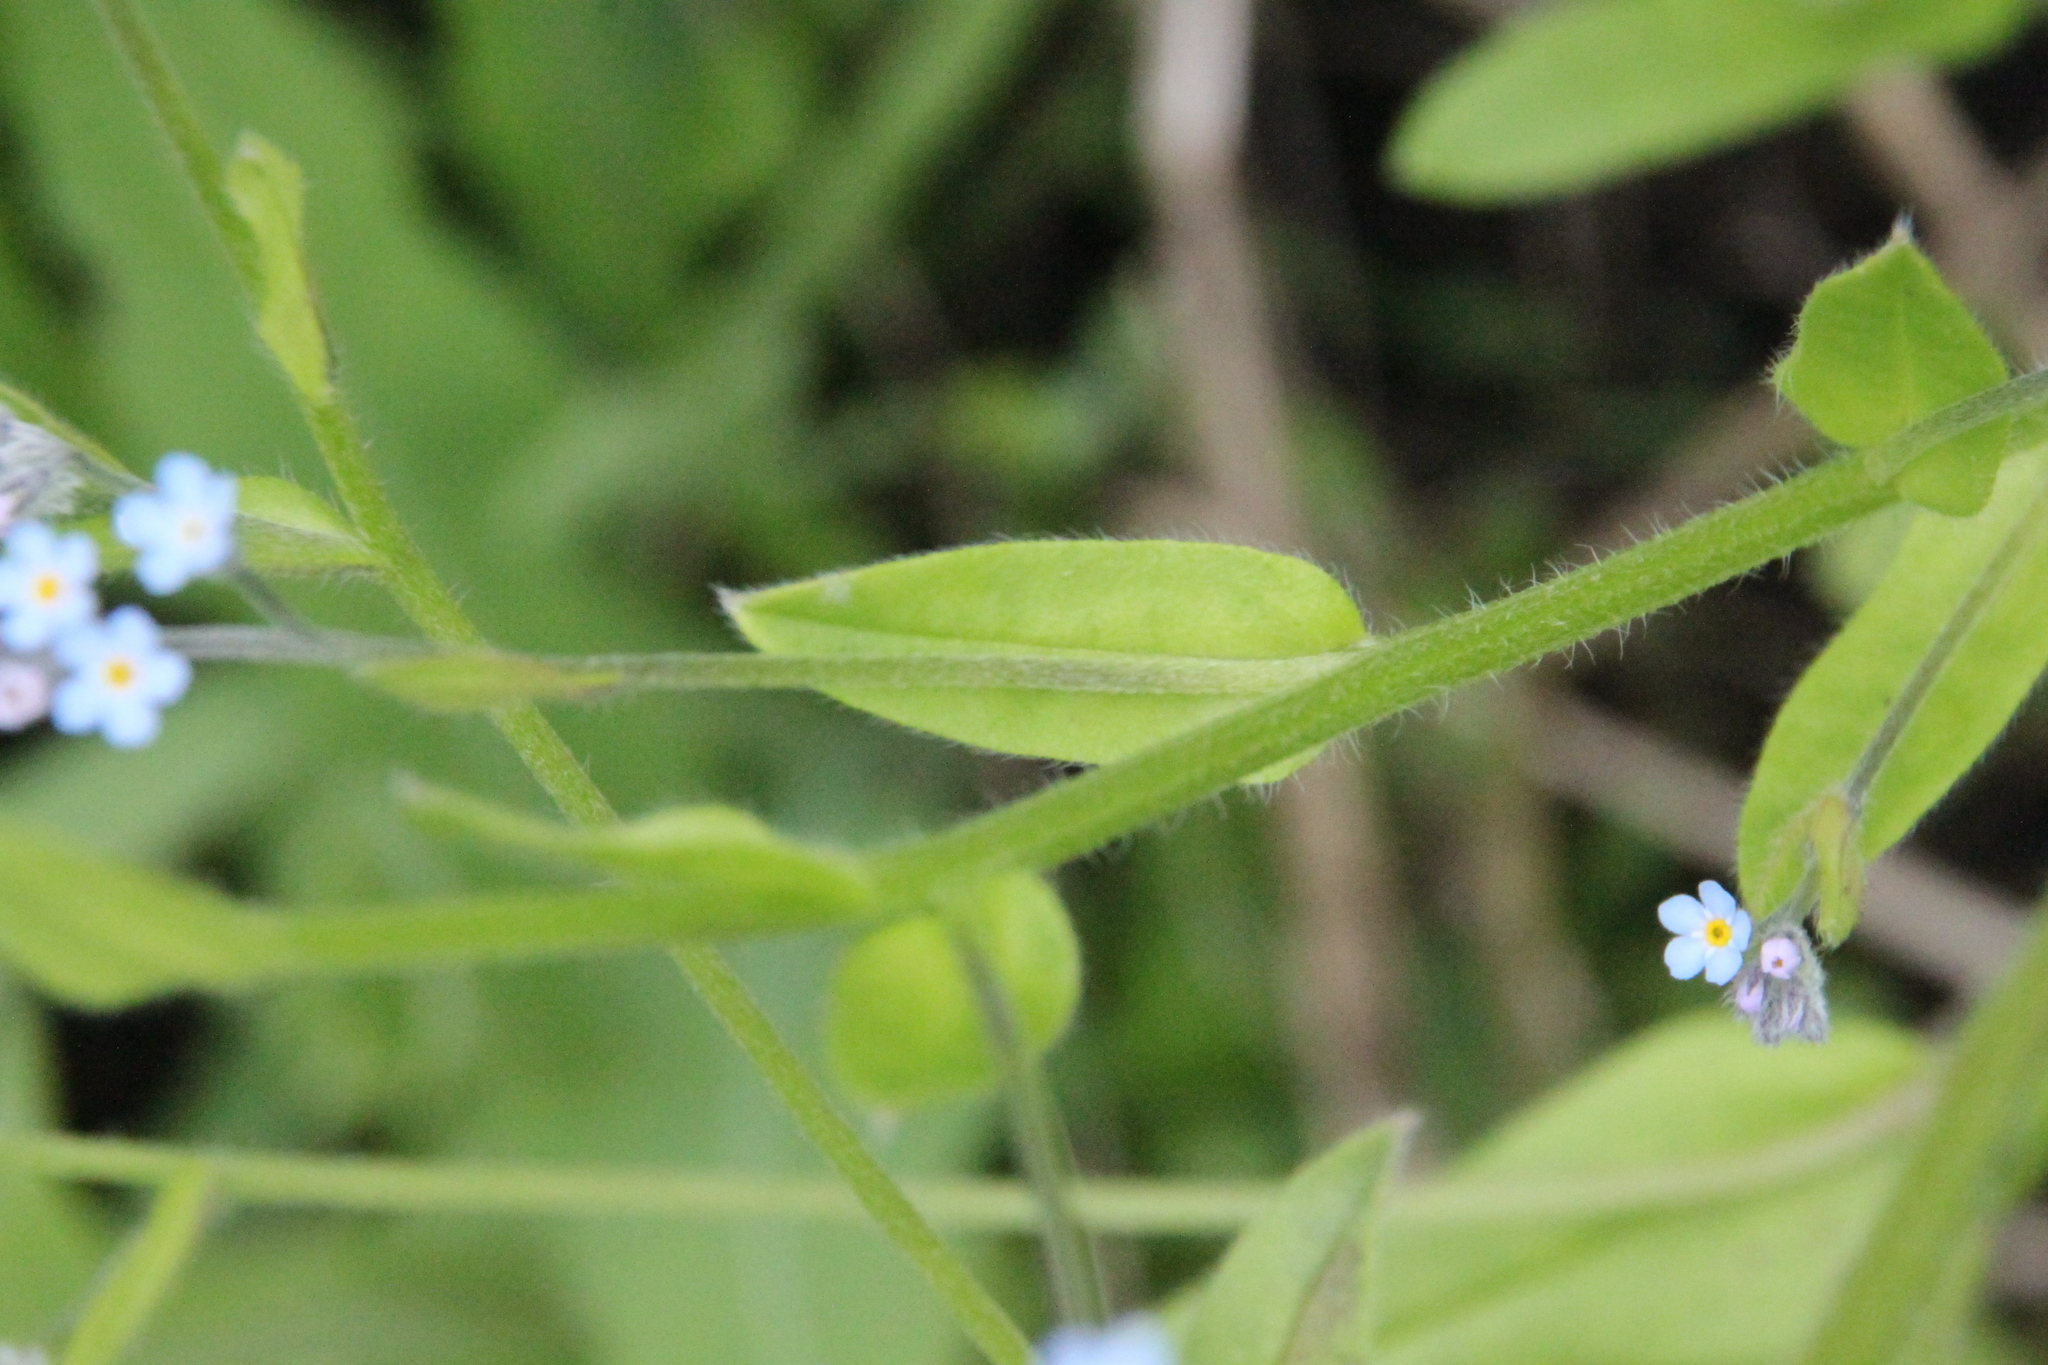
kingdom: Plantae
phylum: Tracheophyta
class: Magnoliopsida
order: Boraginales
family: Boraginaceae
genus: Myosotis
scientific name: Myosotis arvensis
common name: Field forget-me-not
